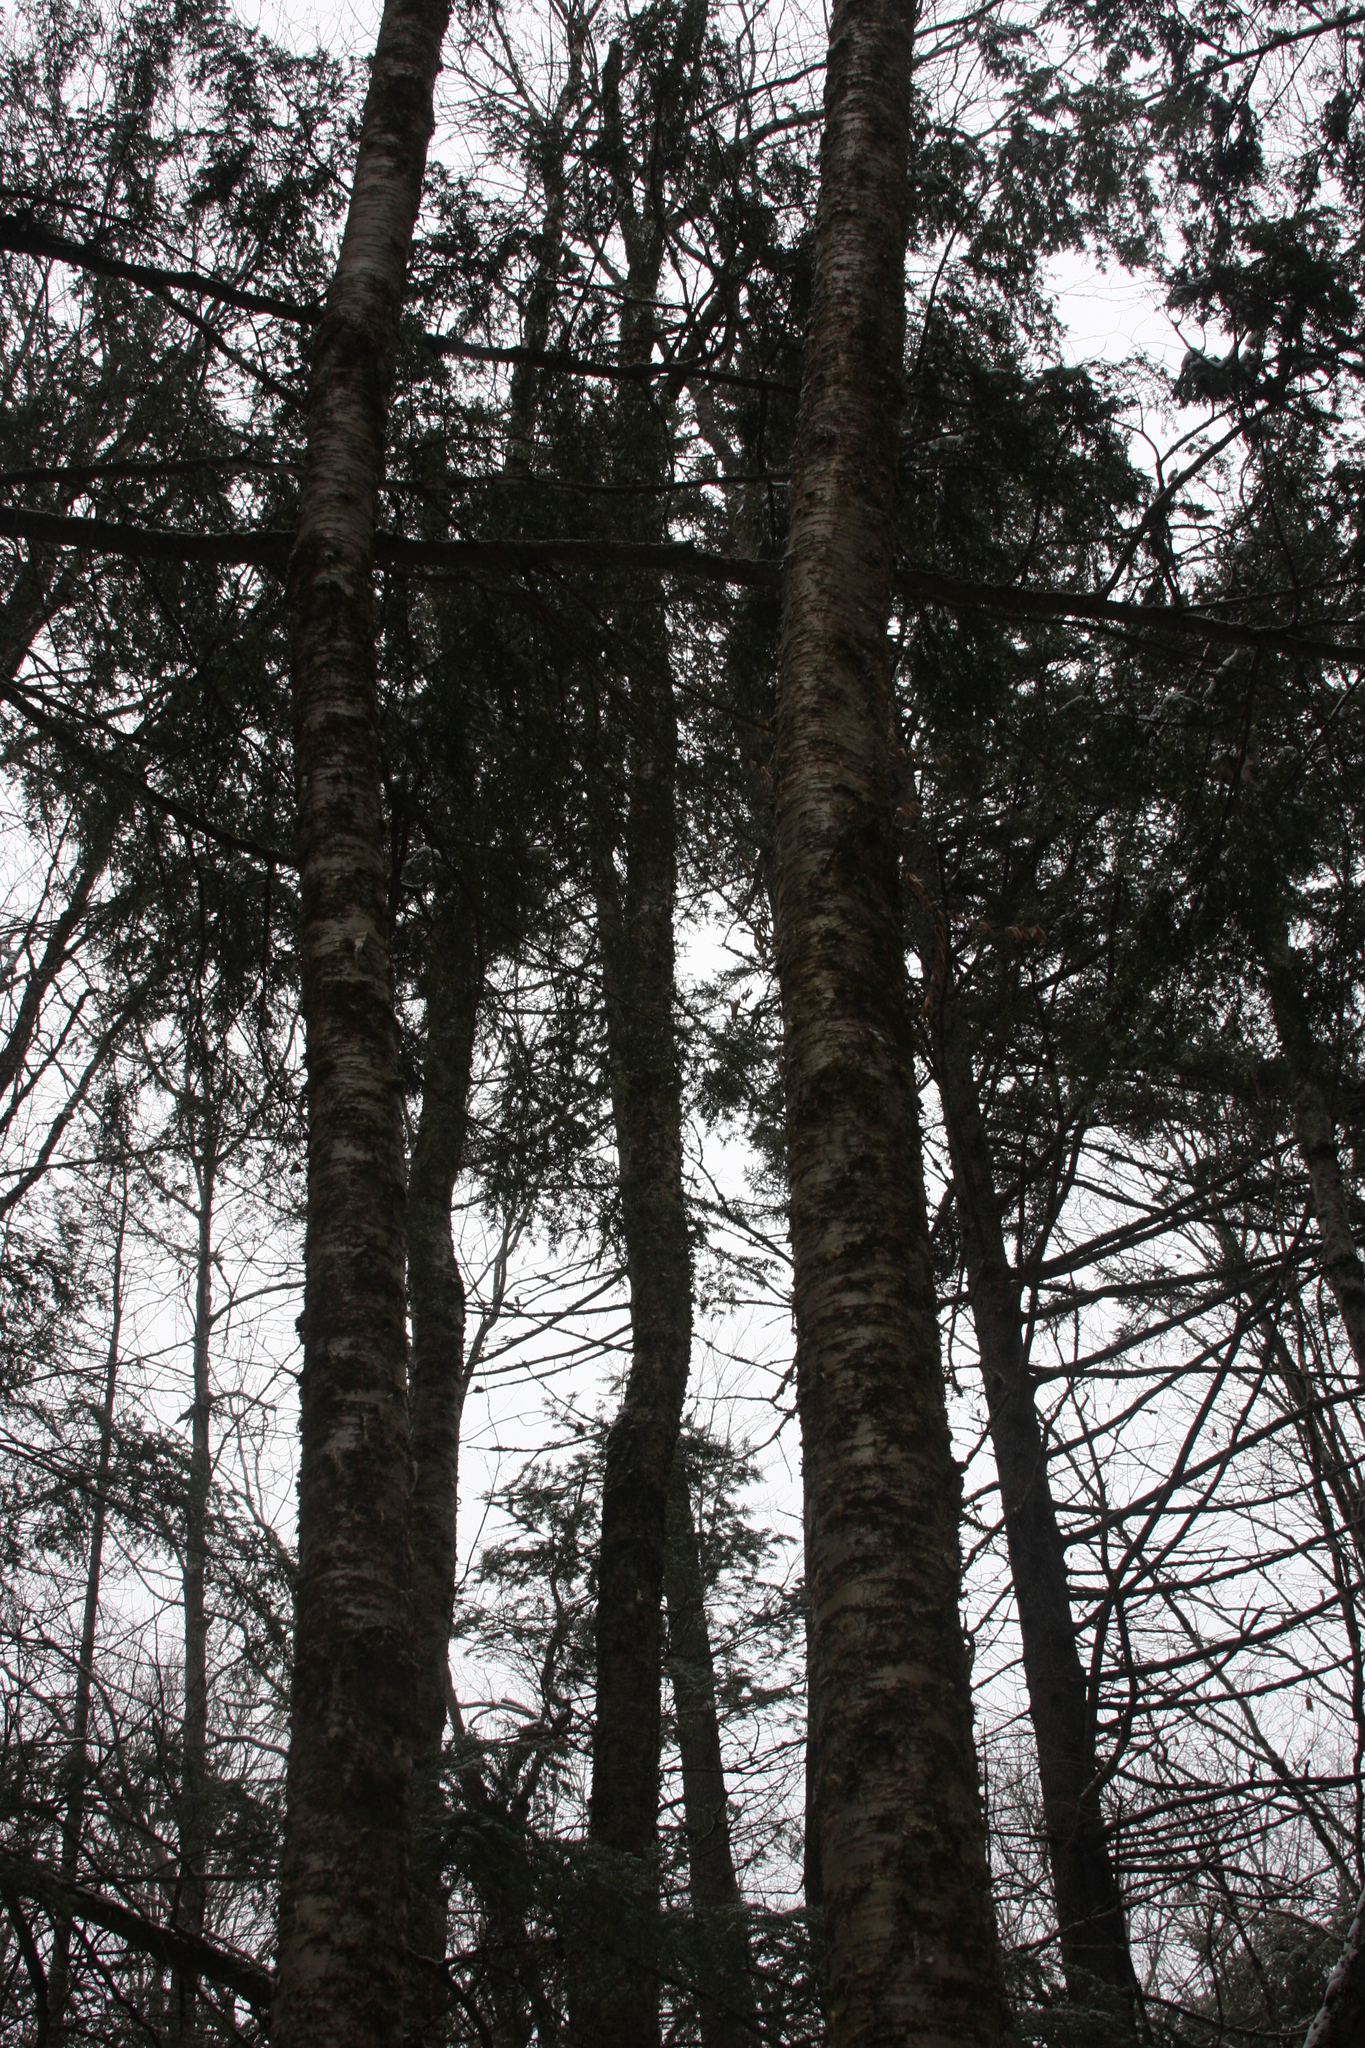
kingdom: Plantae
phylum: Tracheophyta
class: Magnoliopsida
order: Fagales
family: Betulaceae
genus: Betula
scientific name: Betula alleghaniensis
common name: Yellow birch
